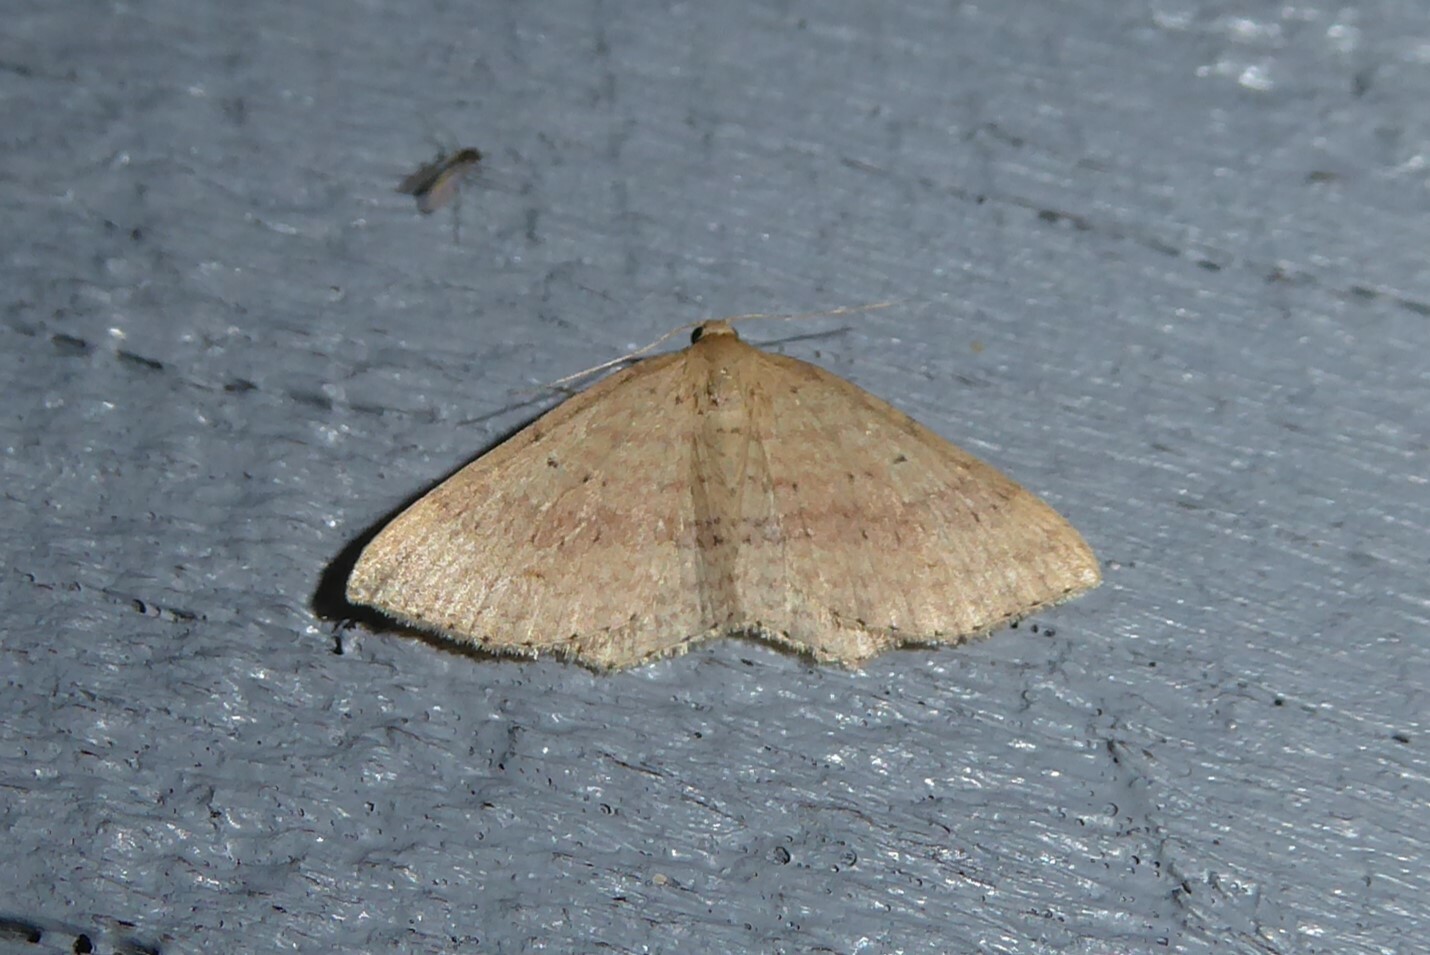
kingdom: Animalia
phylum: Arthropoda
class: Insecta
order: Lepidoptera
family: Geometridae
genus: Epicyme
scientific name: Epicyme rubropunctaria
